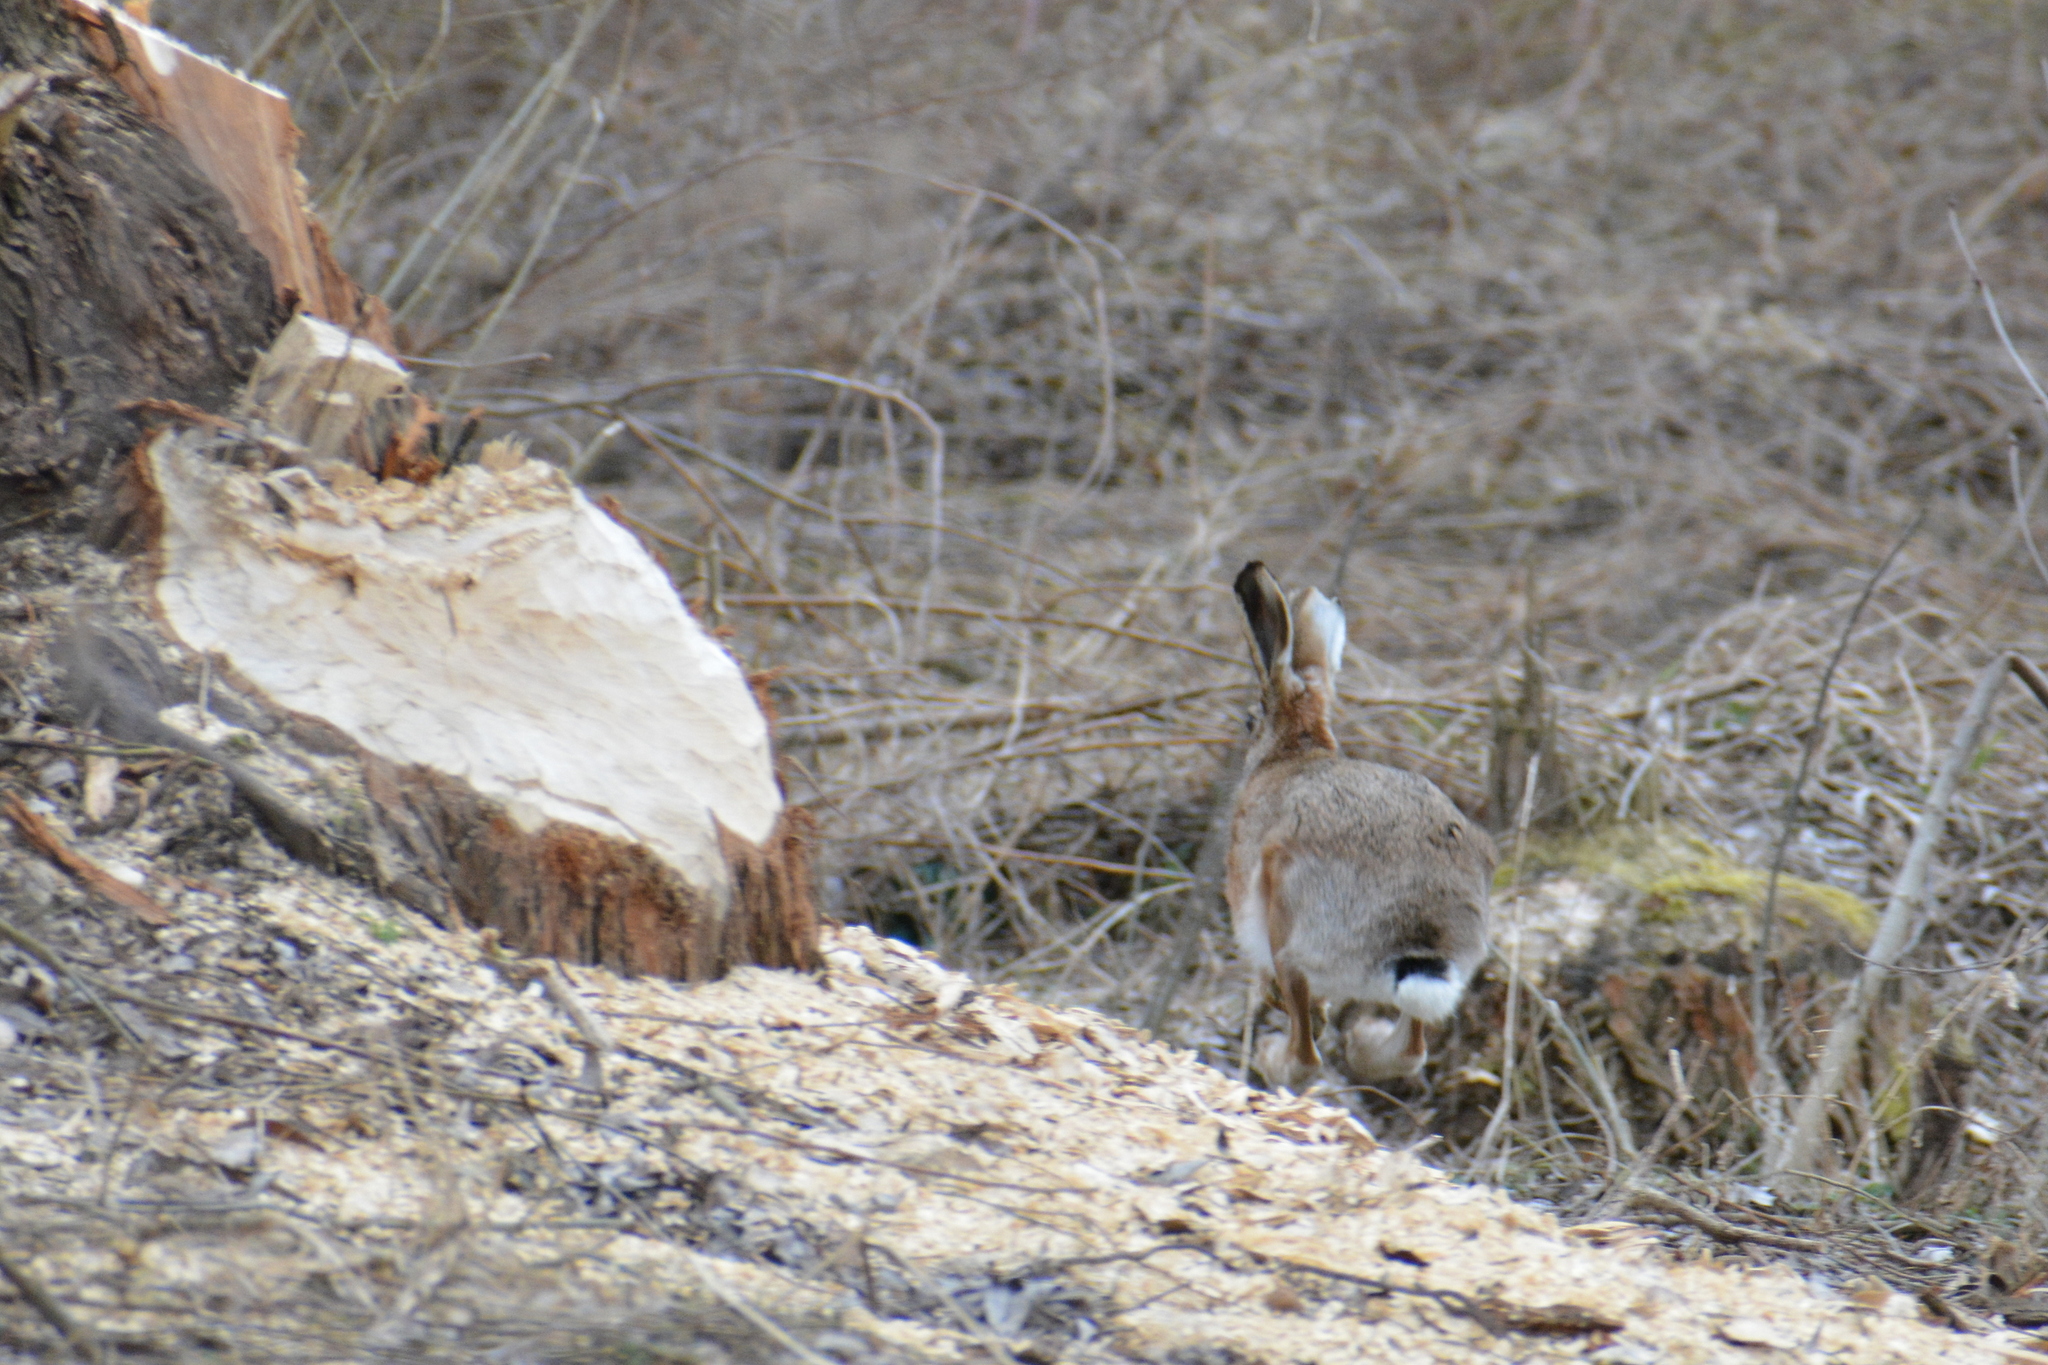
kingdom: Animalia
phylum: Chordata
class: Mammalia
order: Lagomorpha
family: Leporidae
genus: Lepus
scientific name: Lepus europaeus
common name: European hare
